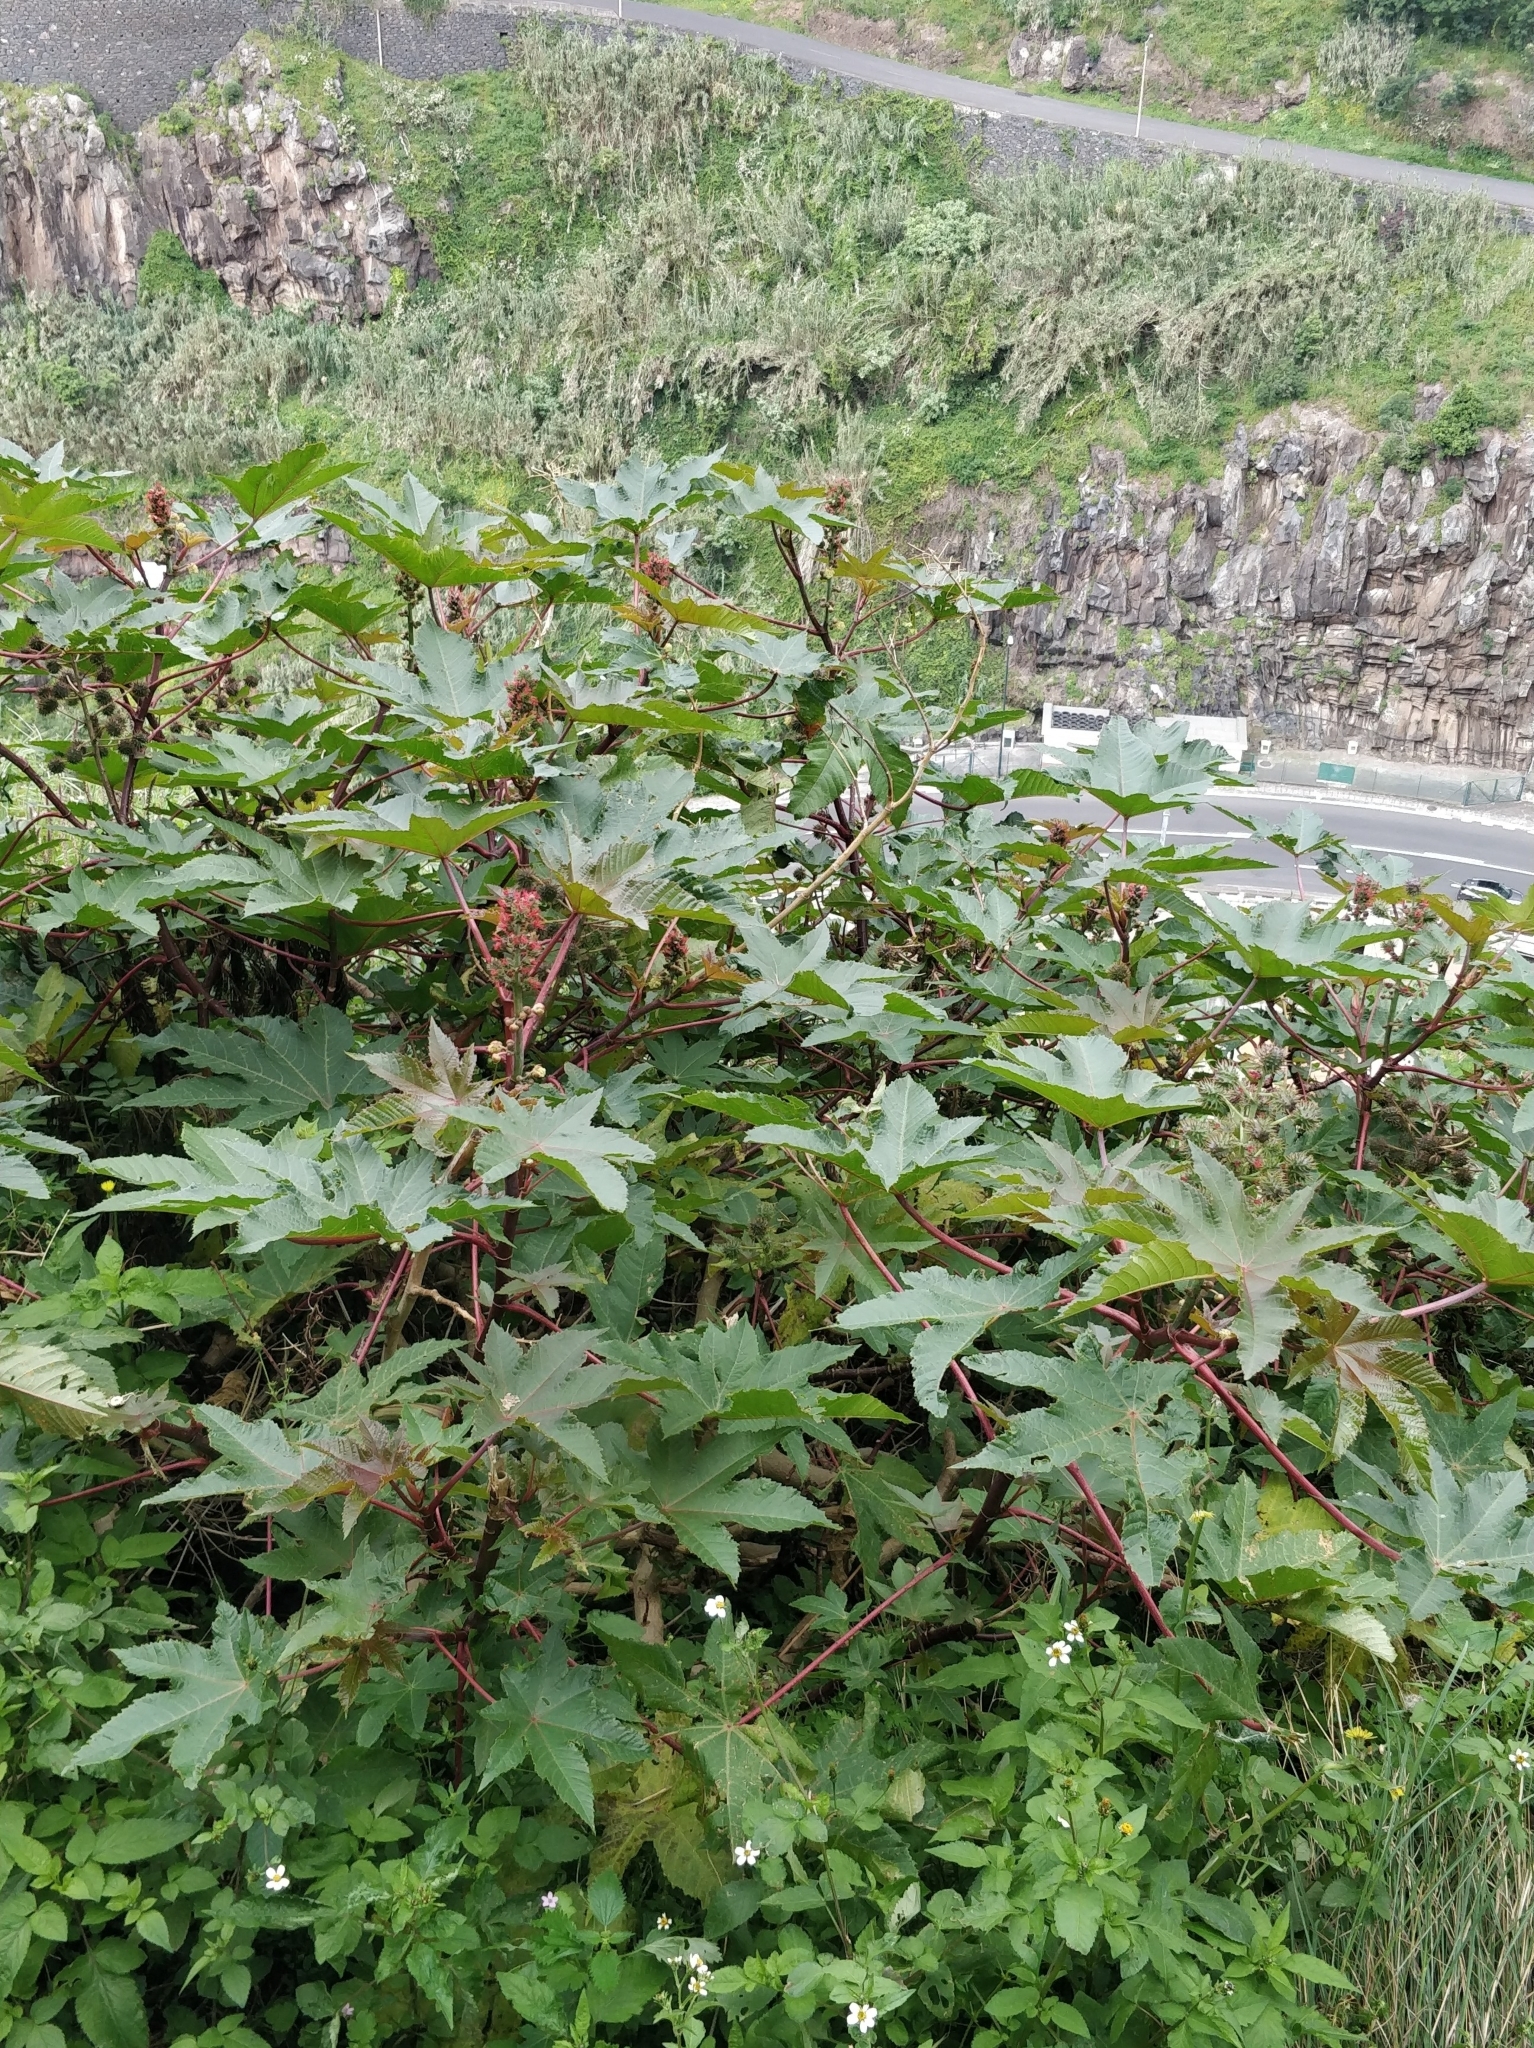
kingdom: Plantae
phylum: Tracheophyta
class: Magnoliopsida
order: Malpighiales
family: Euphorbiaceae
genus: Ricinus
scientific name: Ricinus communis
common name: Castor-oil-plant
